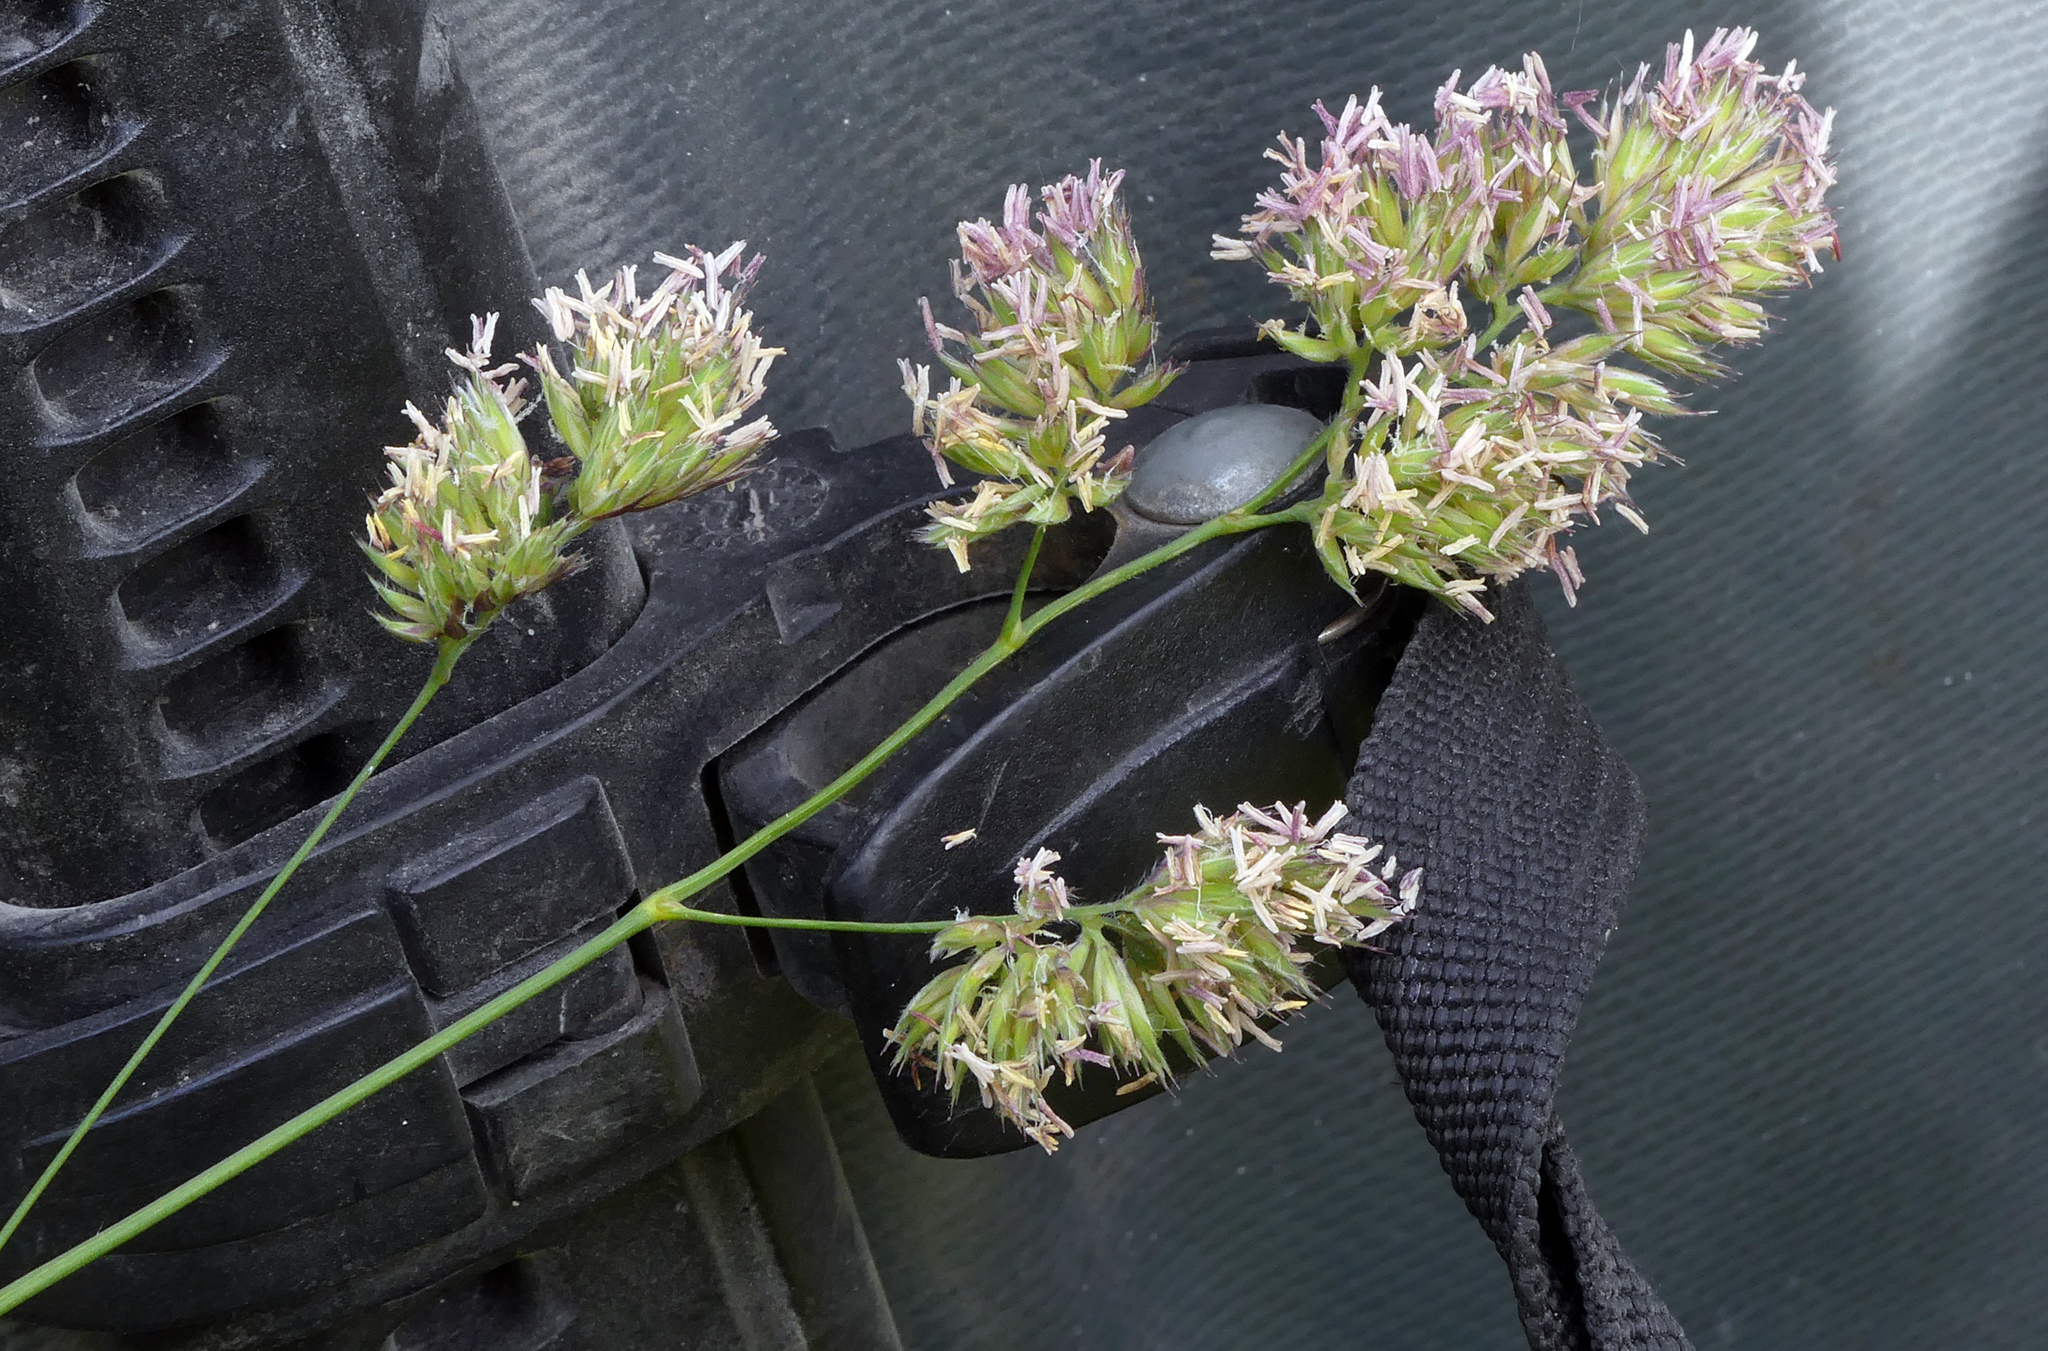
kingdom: Plantae
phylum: Tracheophyta
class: Liliopsida
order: Poales
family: Poaceae
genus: Dactylis
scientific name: Dactylis glomerata
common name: Orchardgrass
